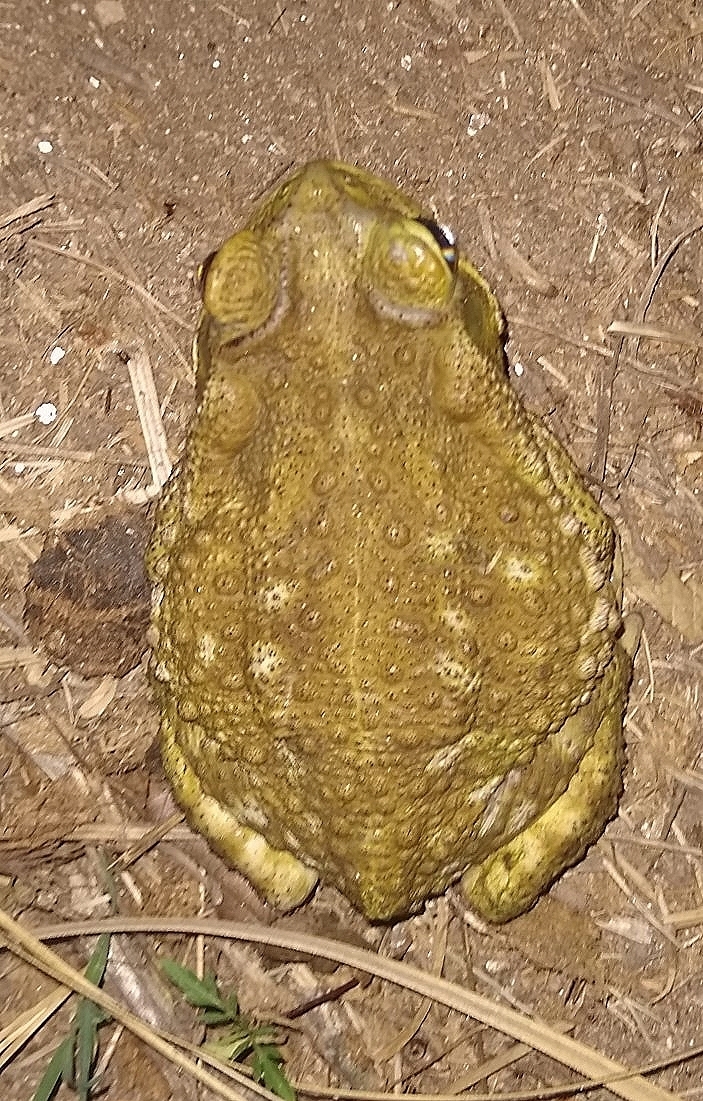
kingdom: Animalia
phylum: Chordata
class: Amphibia
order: Anura
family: Bufonidae
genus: Rhinella
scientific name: Rhinella arenarum
